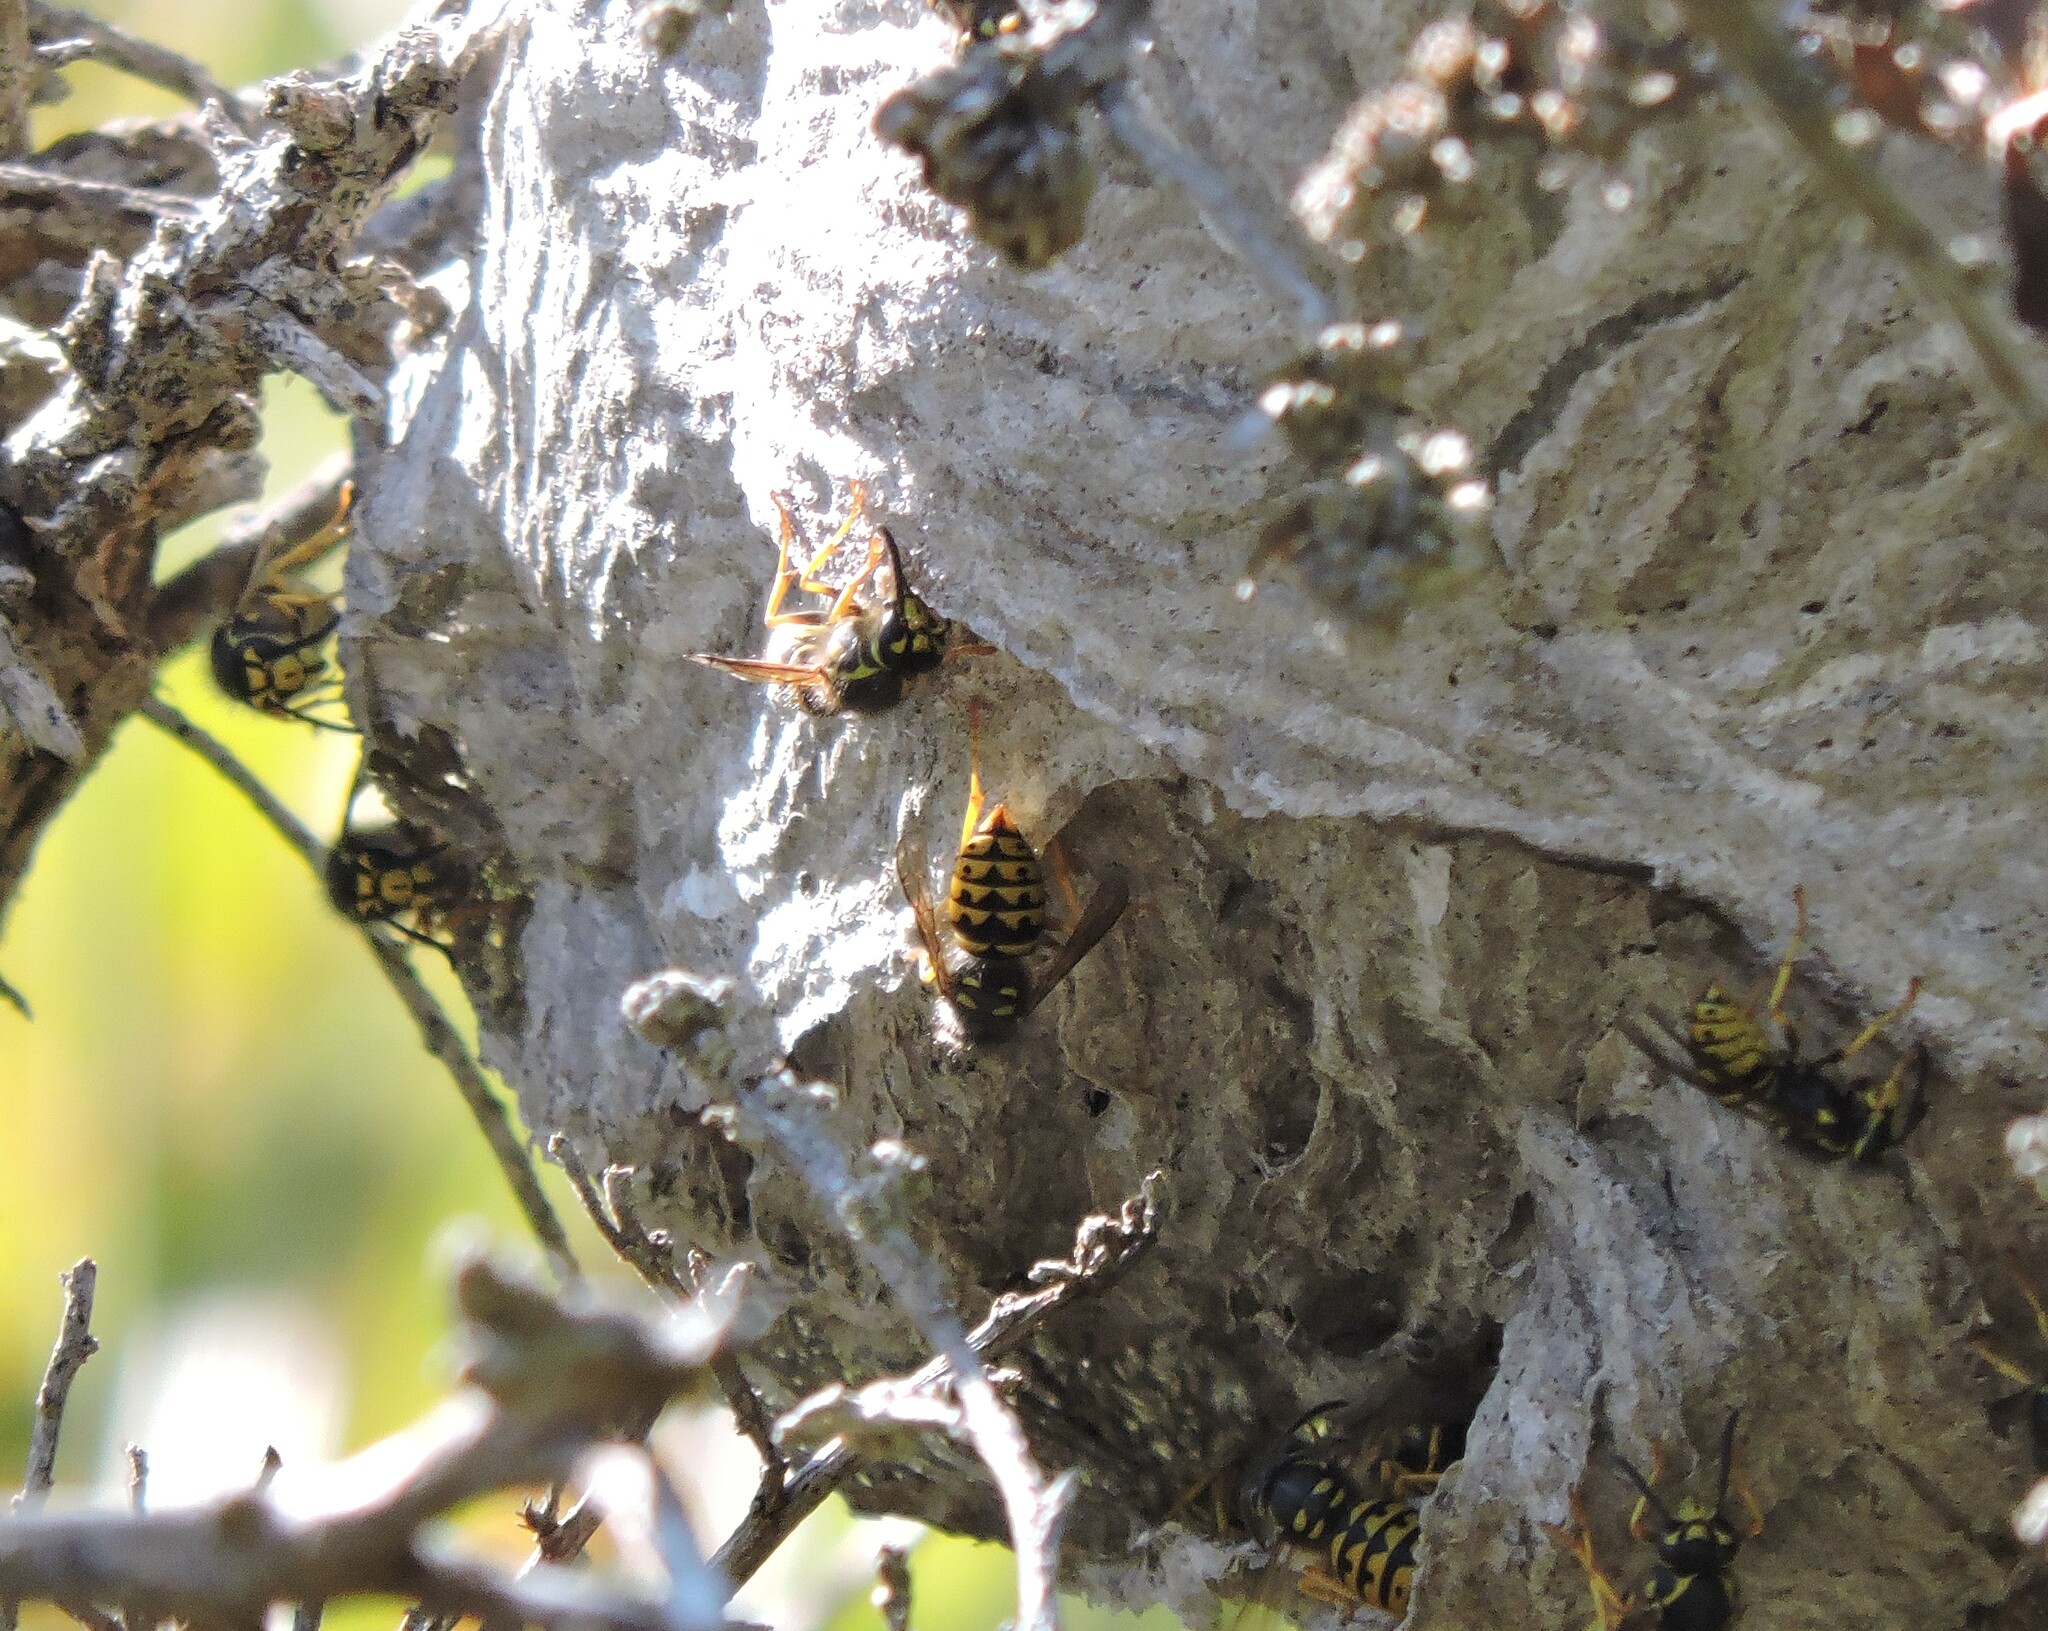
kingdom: Animalia
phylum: Arthropoda
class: Insecta
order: Hymenoptera
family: Vespidae
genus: Dolichovespula
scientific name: Dolichovespula arenaria
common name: Aerial yellowjacket
